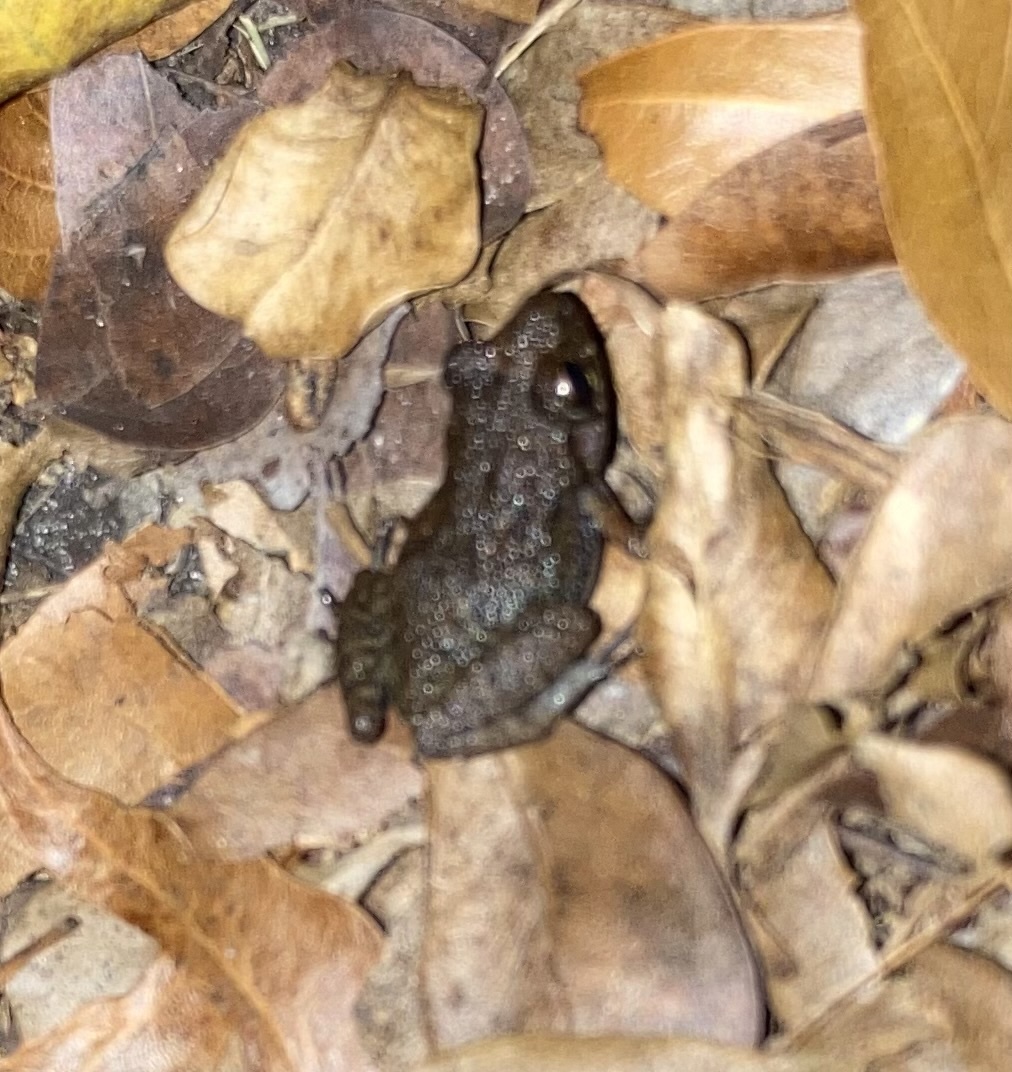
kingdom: Animalia
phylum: Chordata
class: Amphibia
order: Anura
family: Eleutherodactylidae
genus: Eleutherodactylus
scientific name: Eleutherodactylus planirostris
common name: Greenhouse frog
